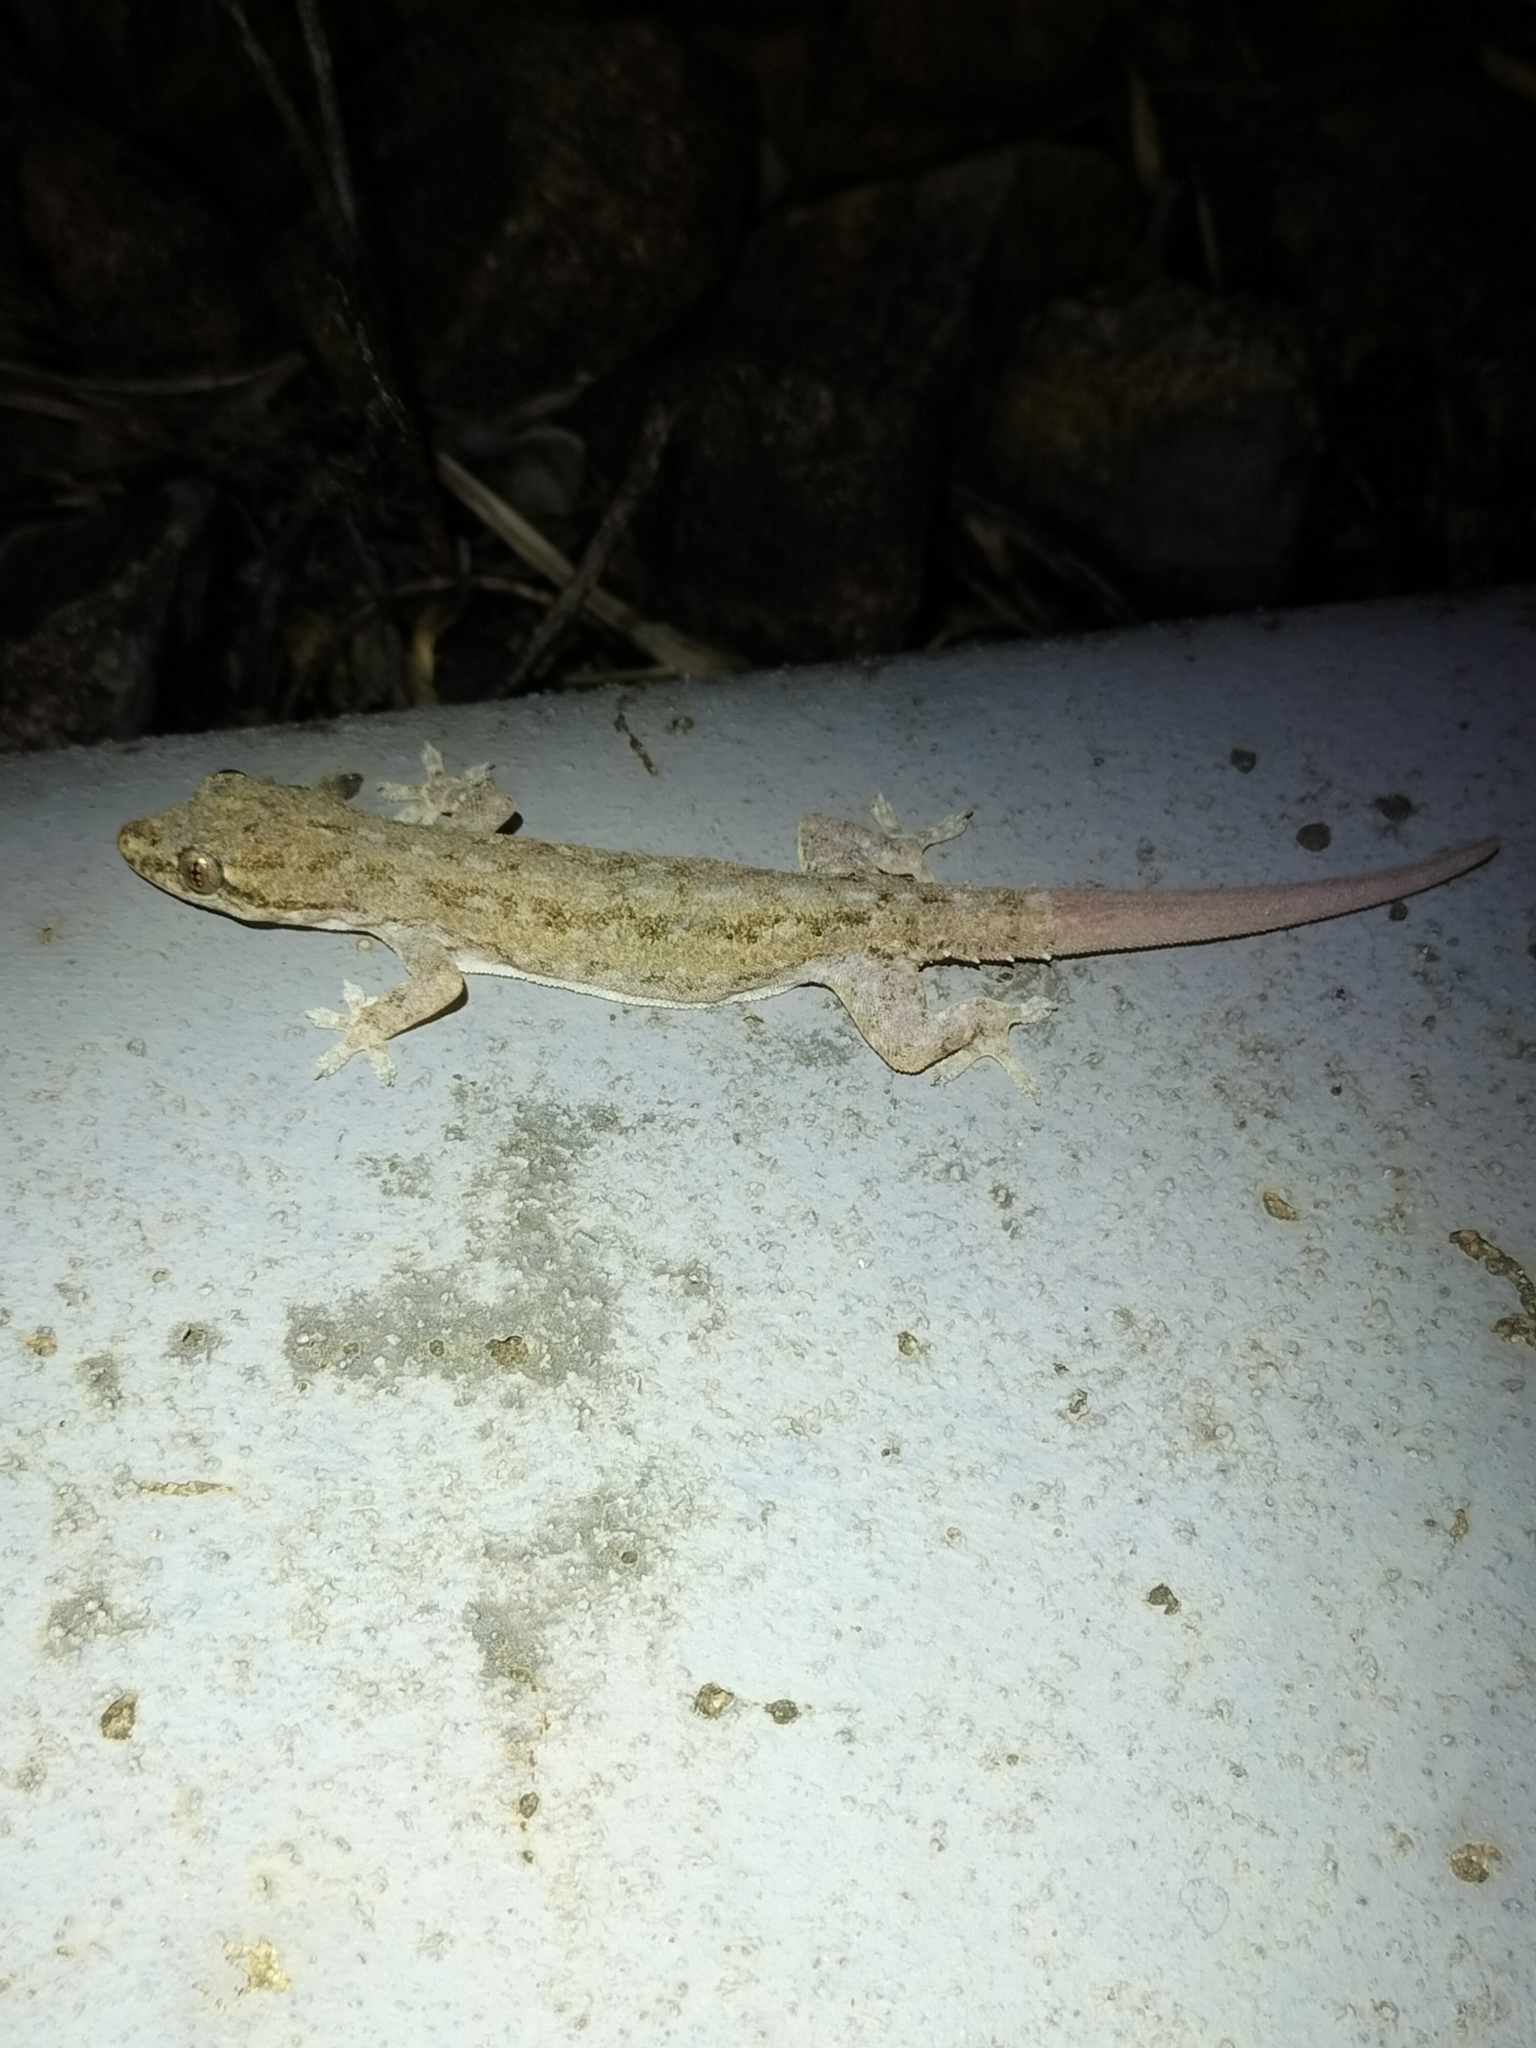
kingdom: Animalia
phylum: Chordata
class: Squamata
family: Gekkonidae
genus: Hemidactylus
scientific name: Hemidactylus frenatus
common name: Common house gecko
